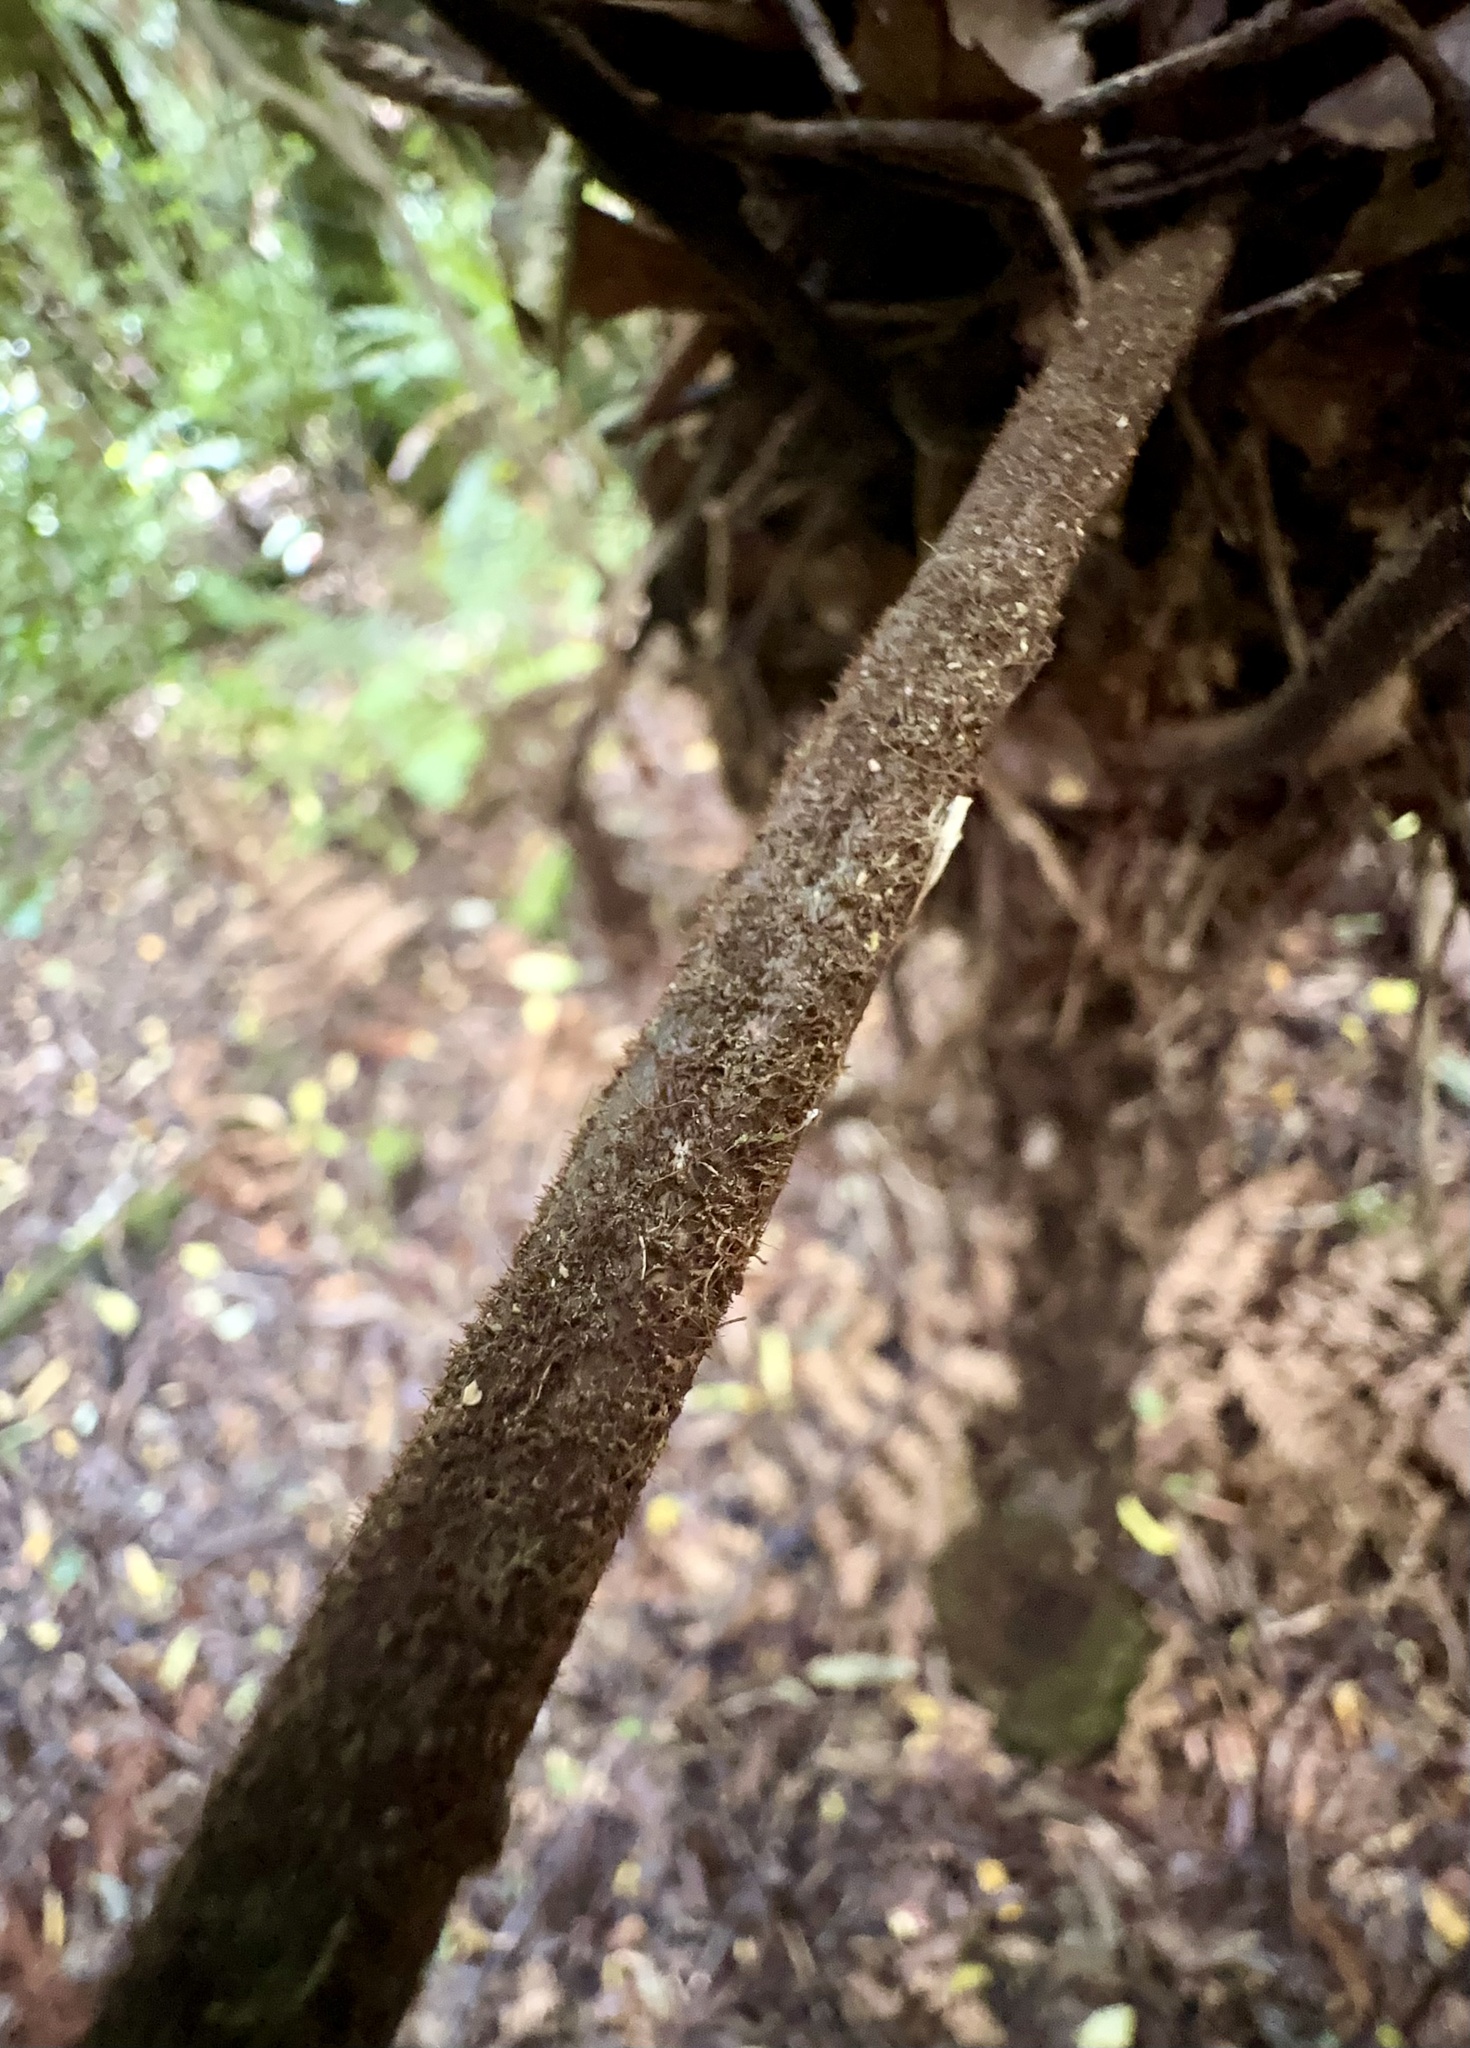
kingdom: Plantae
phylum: Tracheophyta
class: Polypodiopsida
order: Cyatheales
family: Dicksoniaceae
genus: Dicksonia
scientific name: Dicksonia squarrosa
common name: Hard treefern
